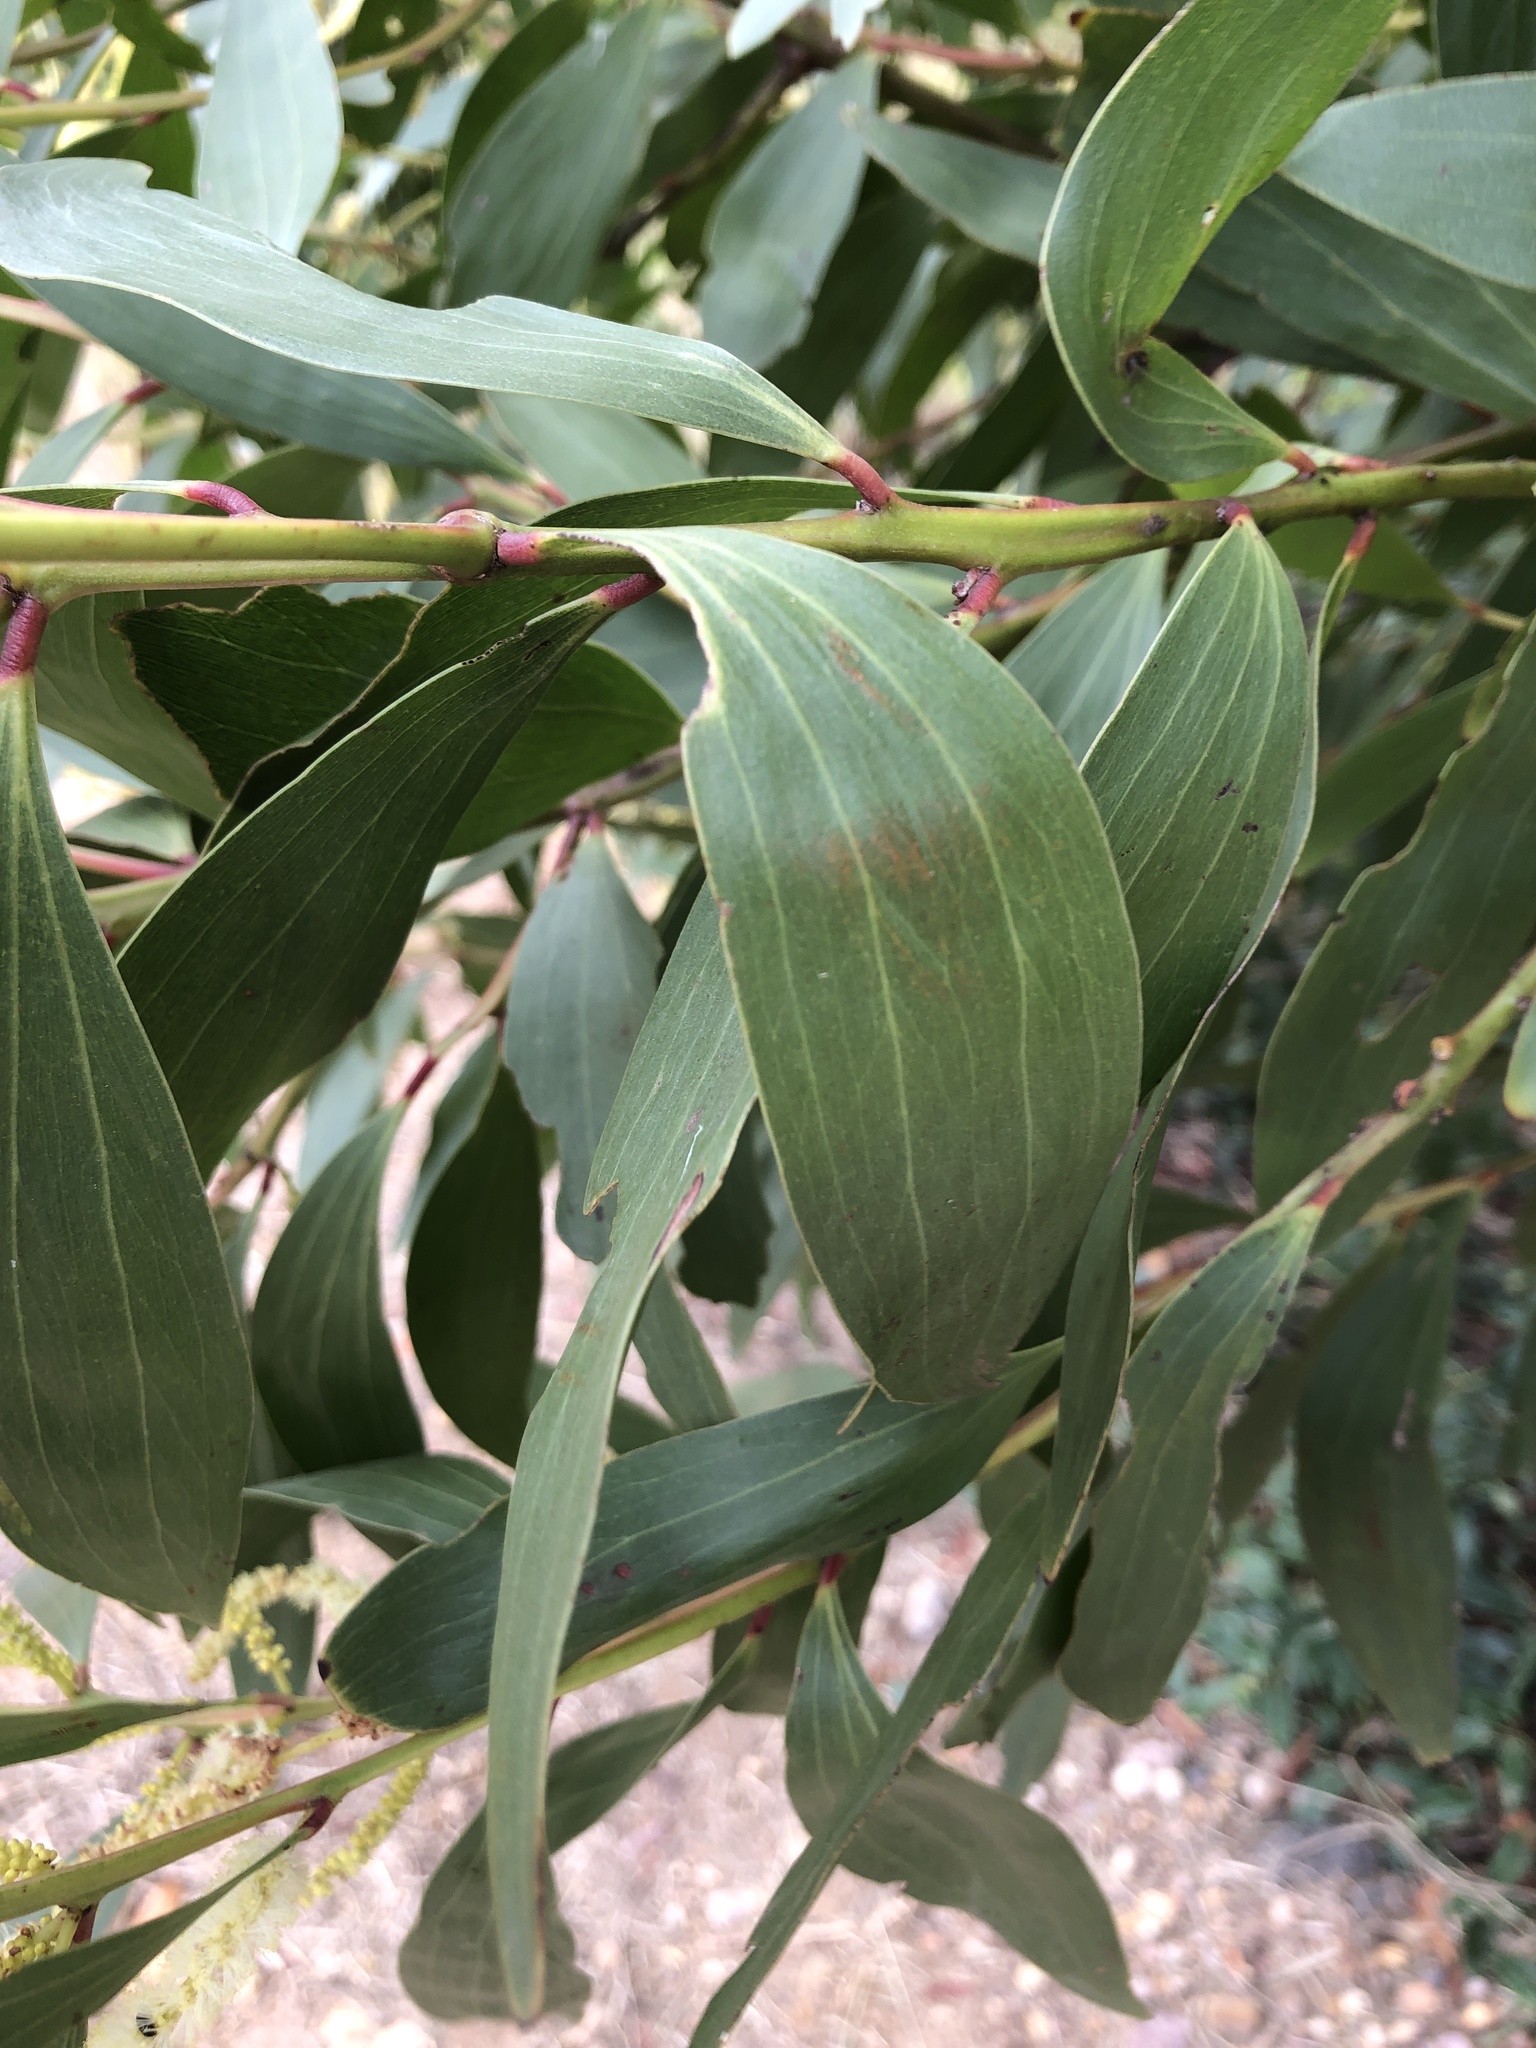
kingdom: Plantae
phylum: Tracheophyta
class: Magnoliopsida
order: Fabales
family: Fabaceae
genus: Acacia
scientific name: Acacia leiocalyx
